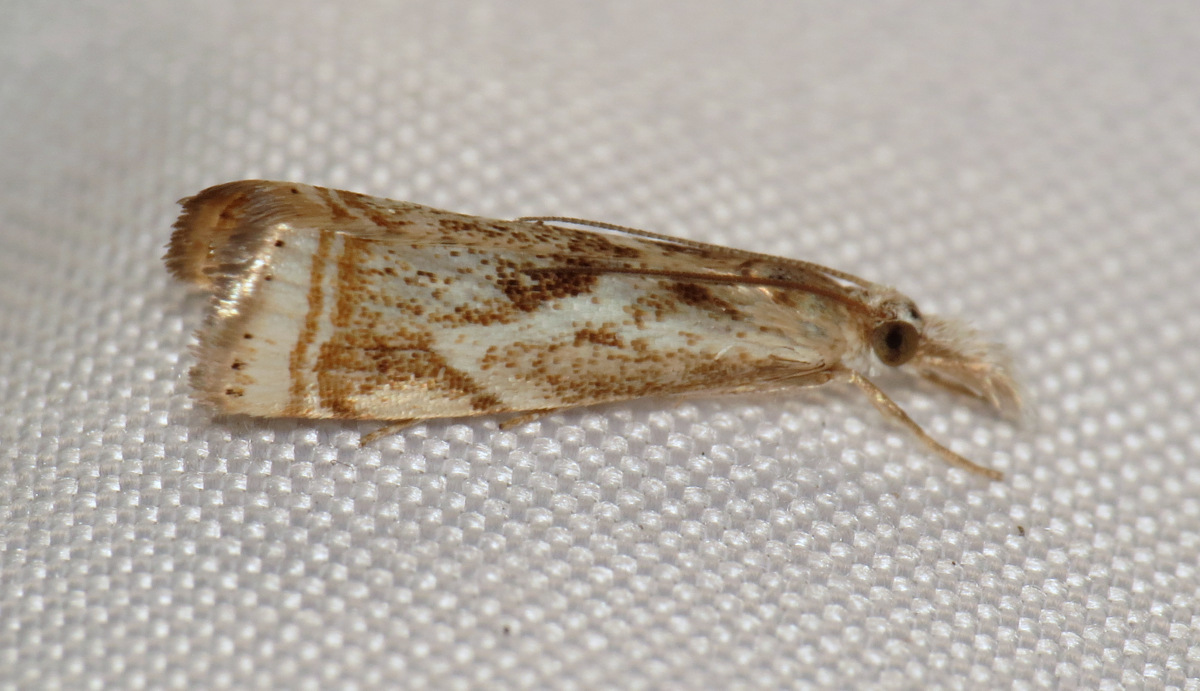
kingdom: Animalia
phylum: Arthropoda
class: Insecta
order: Lepidoptera
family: Crambidae
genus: Microcrambus
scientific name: Microcrambus elegans
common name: Elegant grass-veneer
